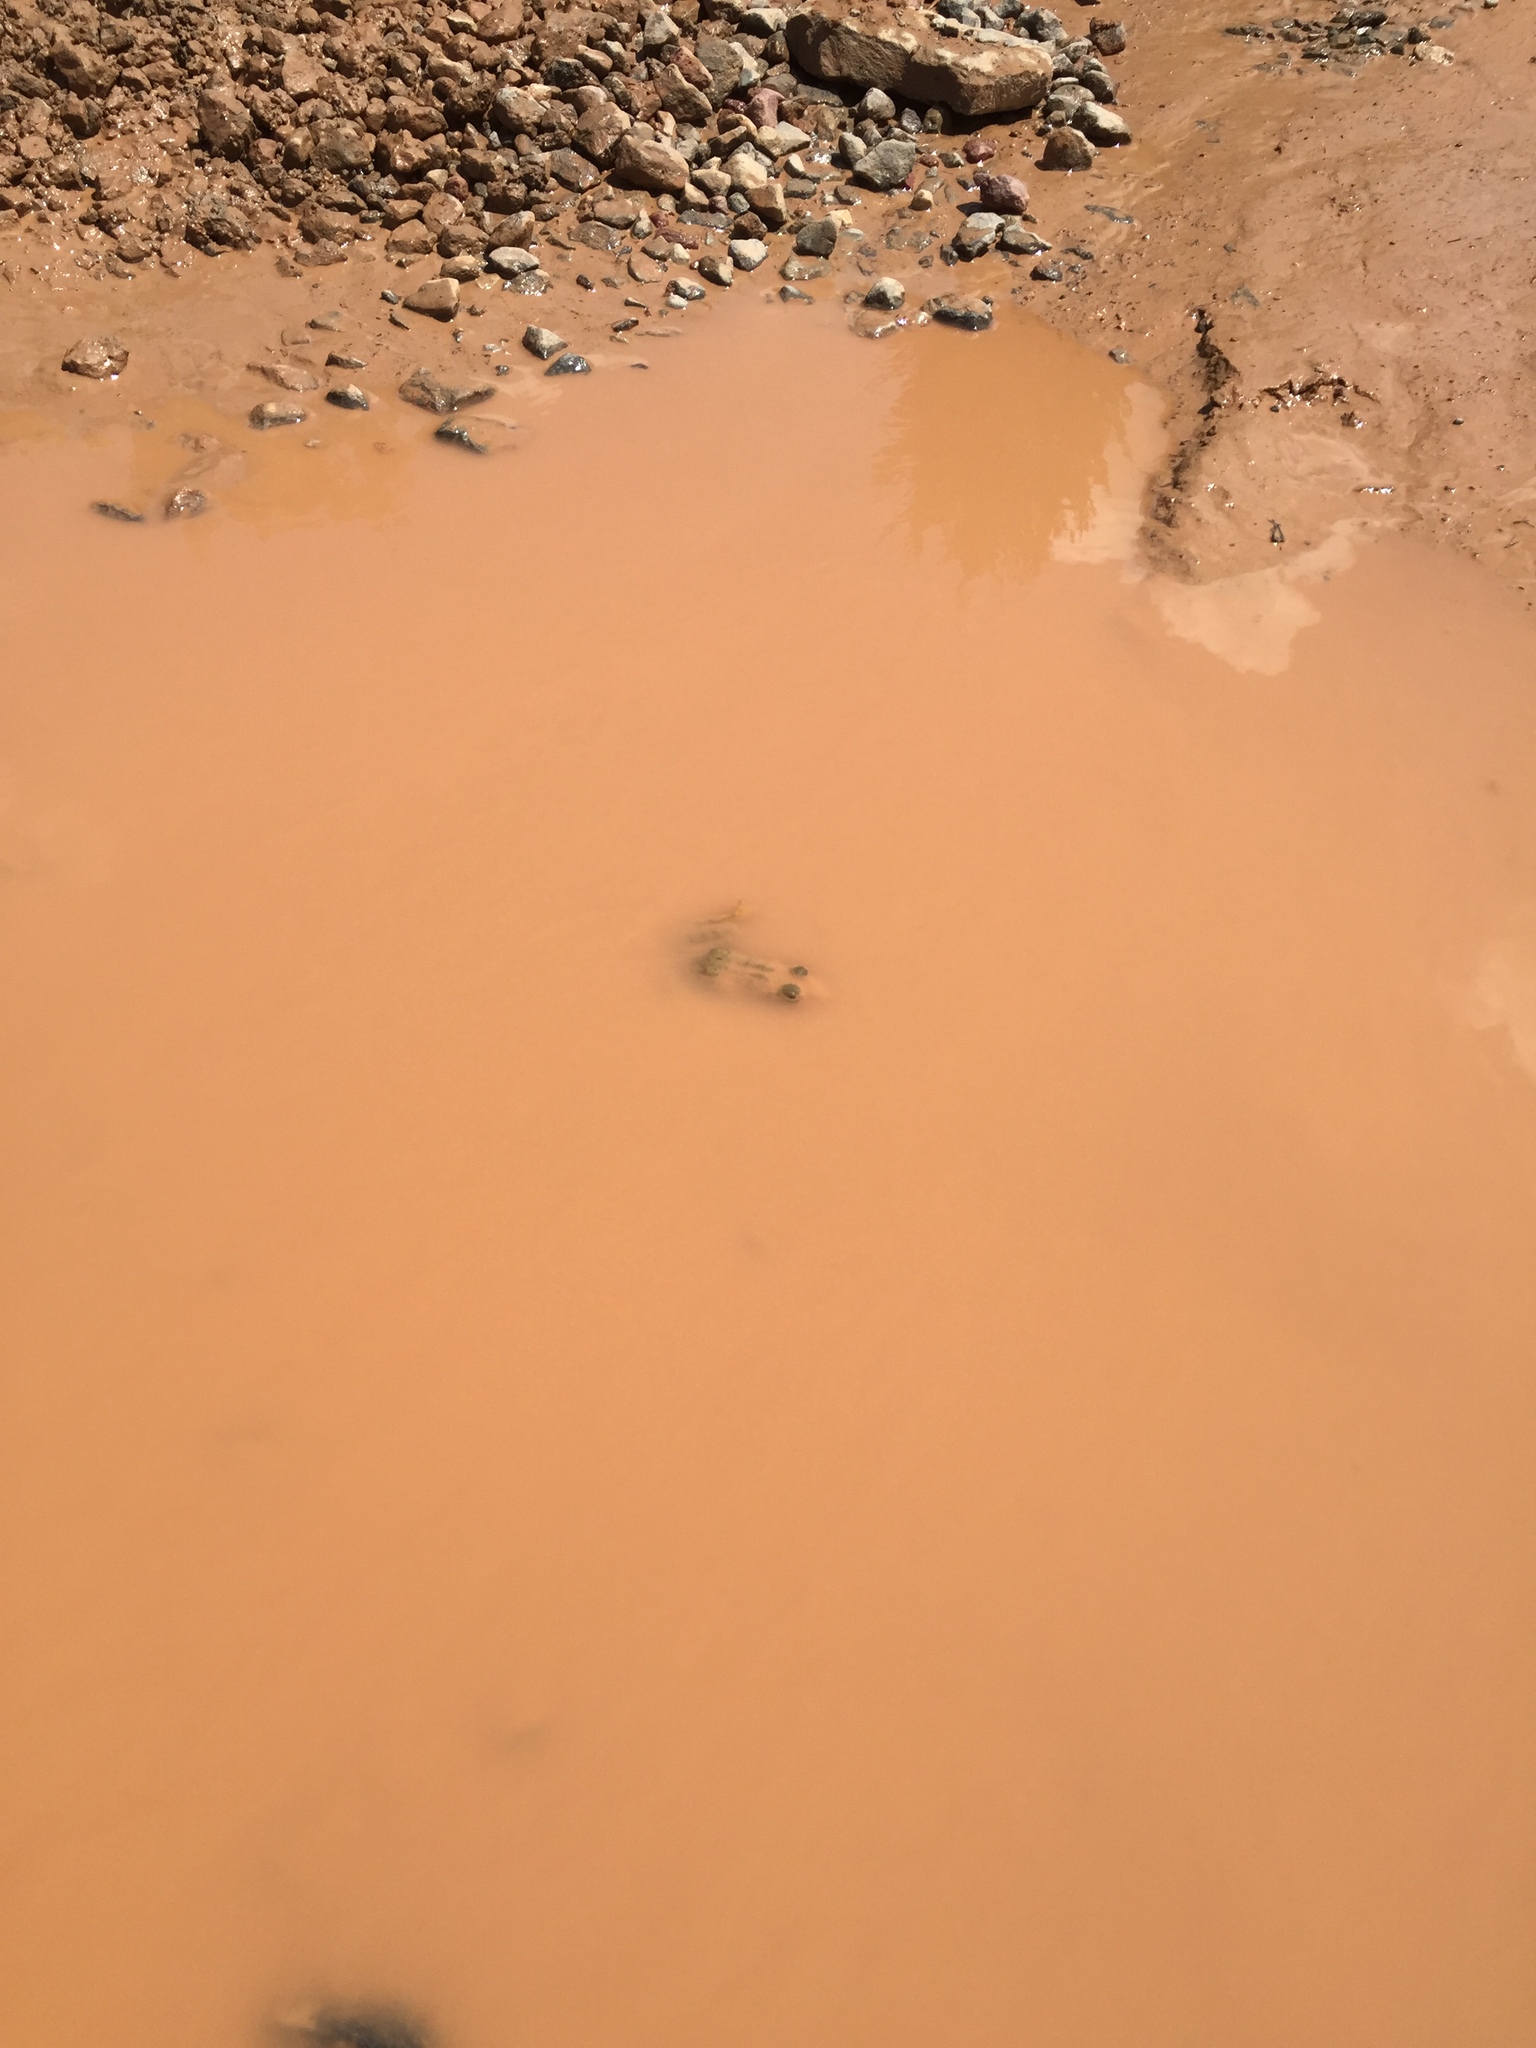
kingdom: Animalia
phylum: Chordata
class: Amphibia
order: Anura
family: Ranidae
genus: Lithobates
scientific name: Lithobates
